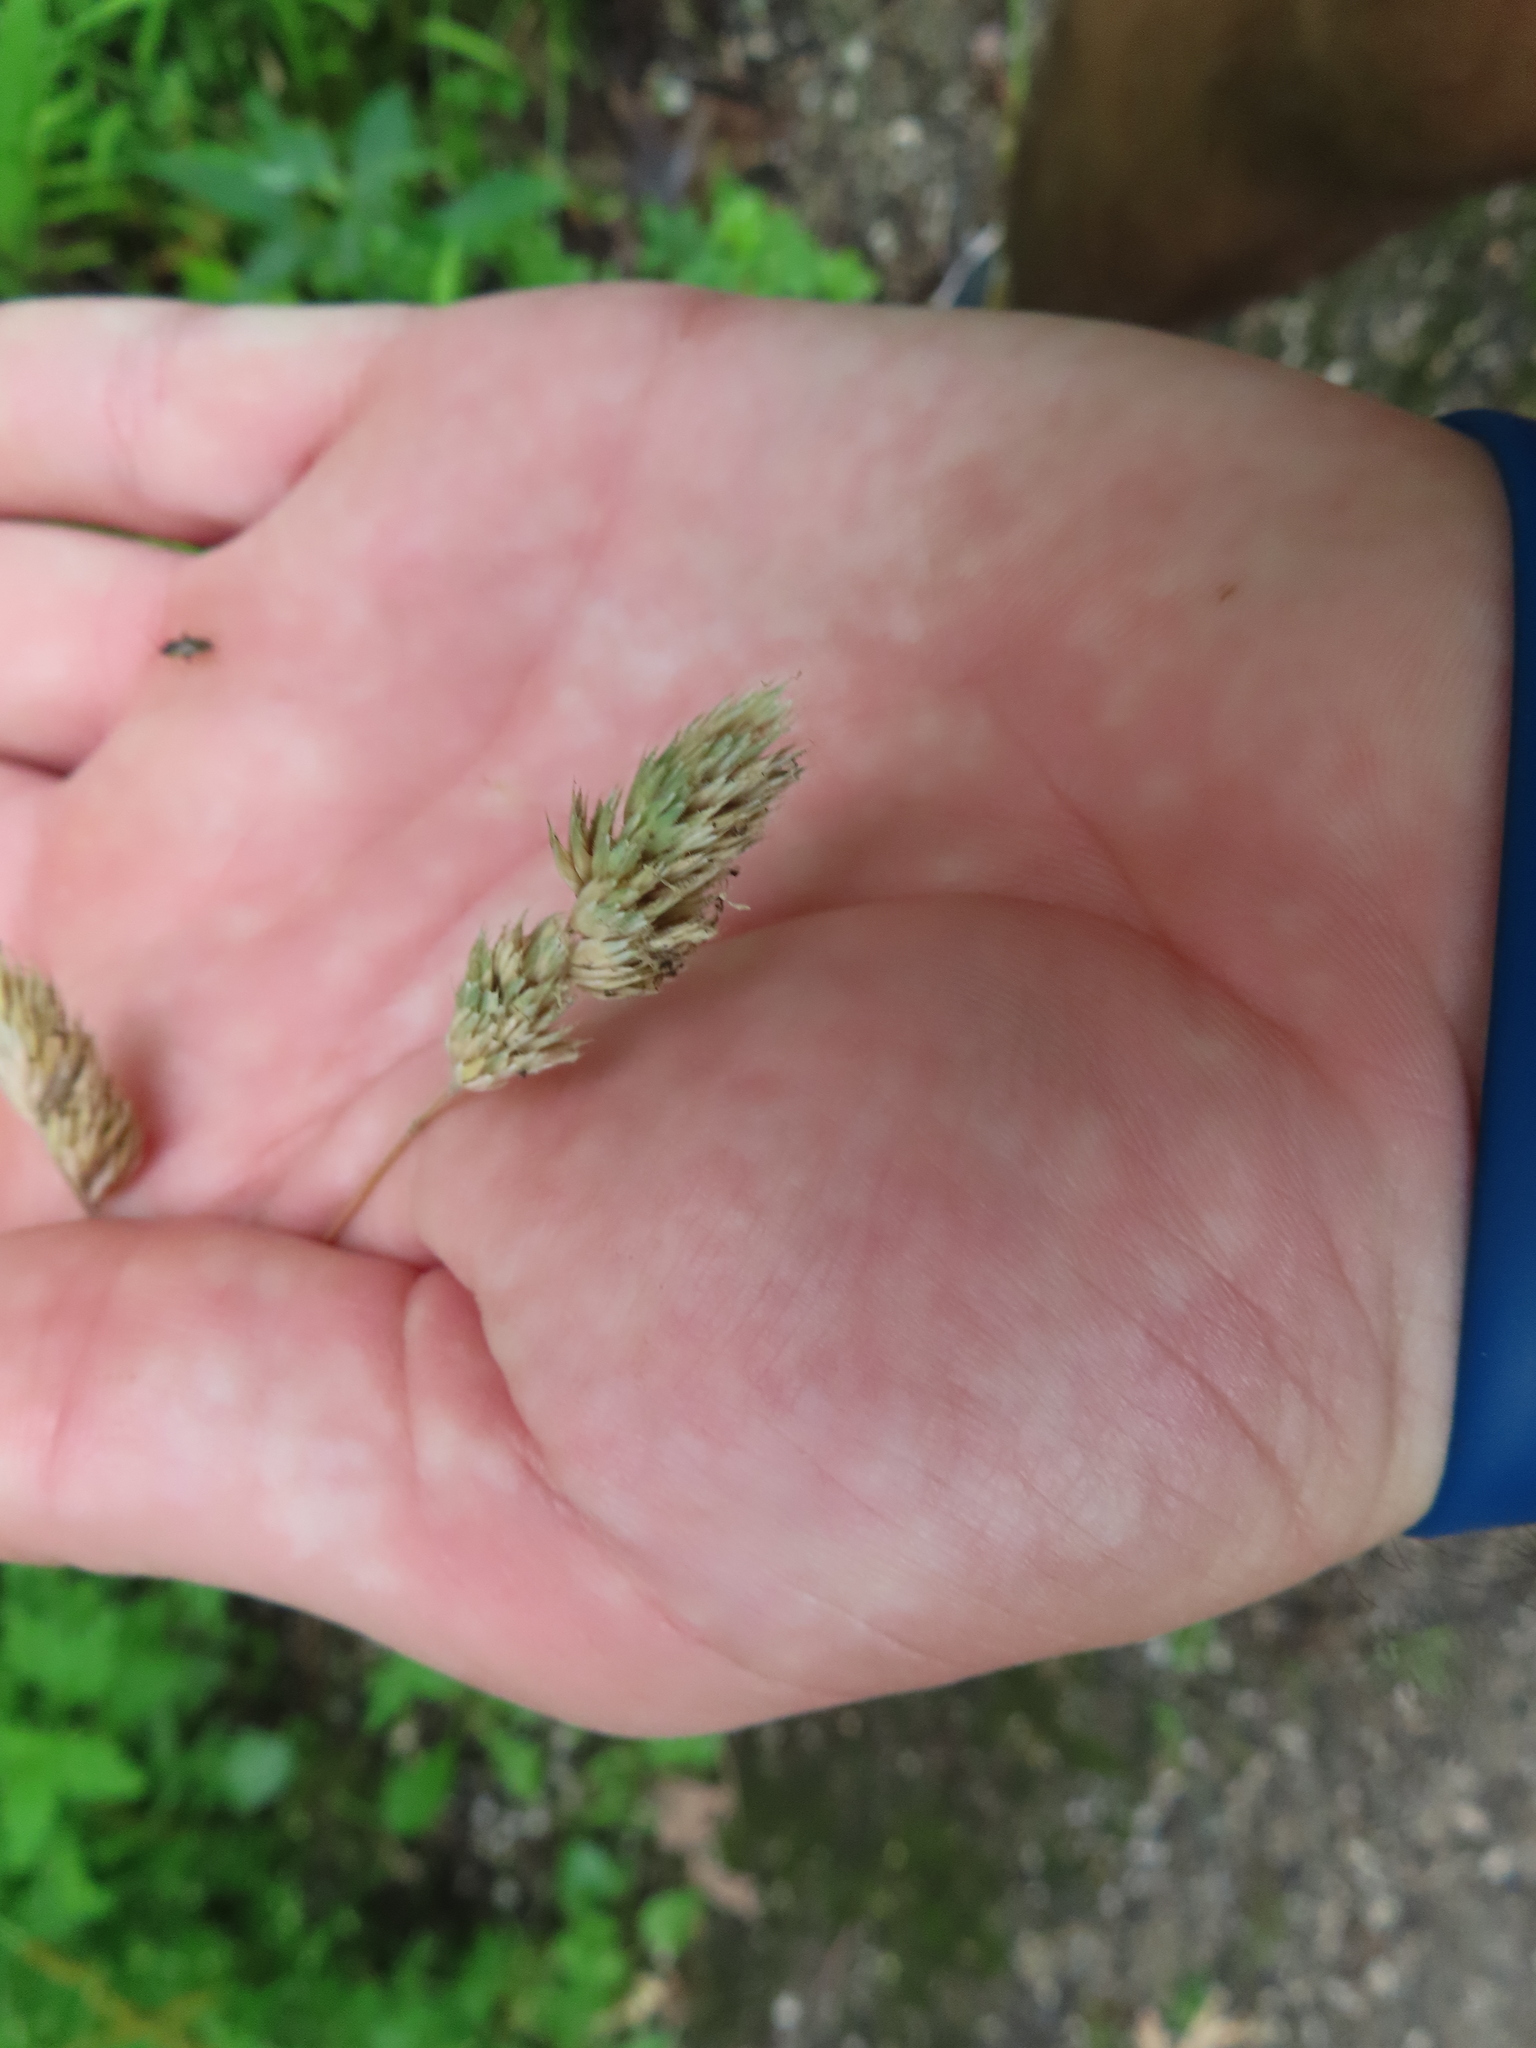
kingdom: Plantae
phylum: Tracheophyta
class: Liliopsida
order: Poales
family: Poaceae
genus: Dactylis
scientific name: Dactylis glomerata
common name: Orchardgrass
